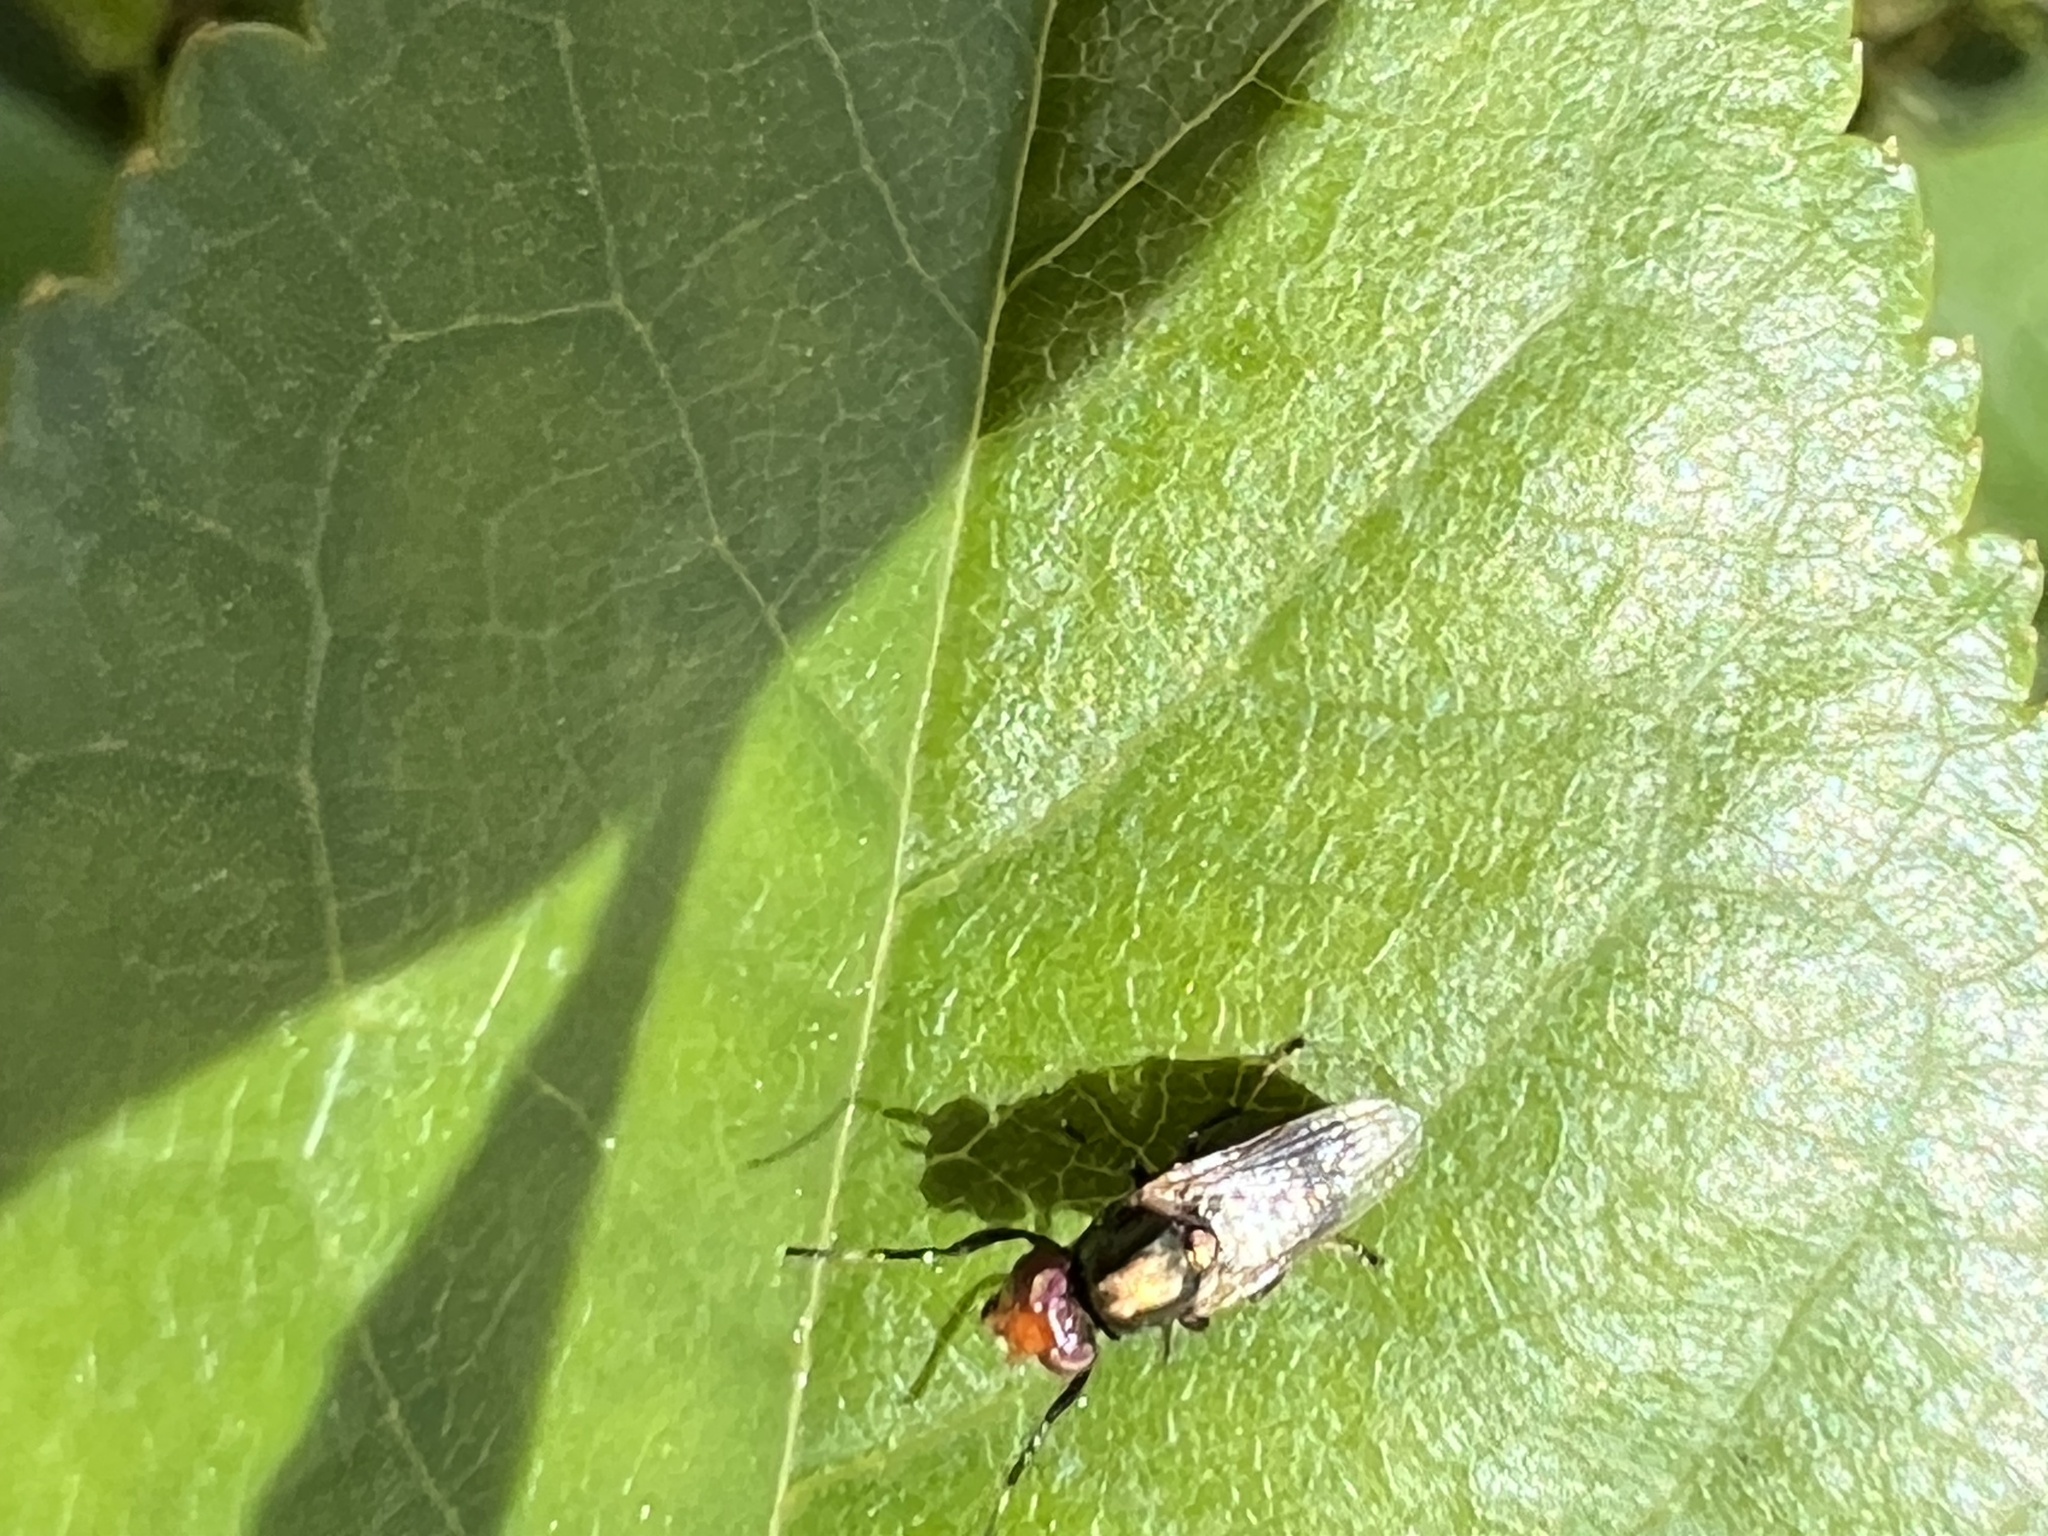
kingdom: Animalia
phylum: Arthropoda
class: Insecta
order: Diptera
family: Ulidiidae
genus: Physiphora
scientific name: Physiphora alceae
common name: Picture-winged fly
